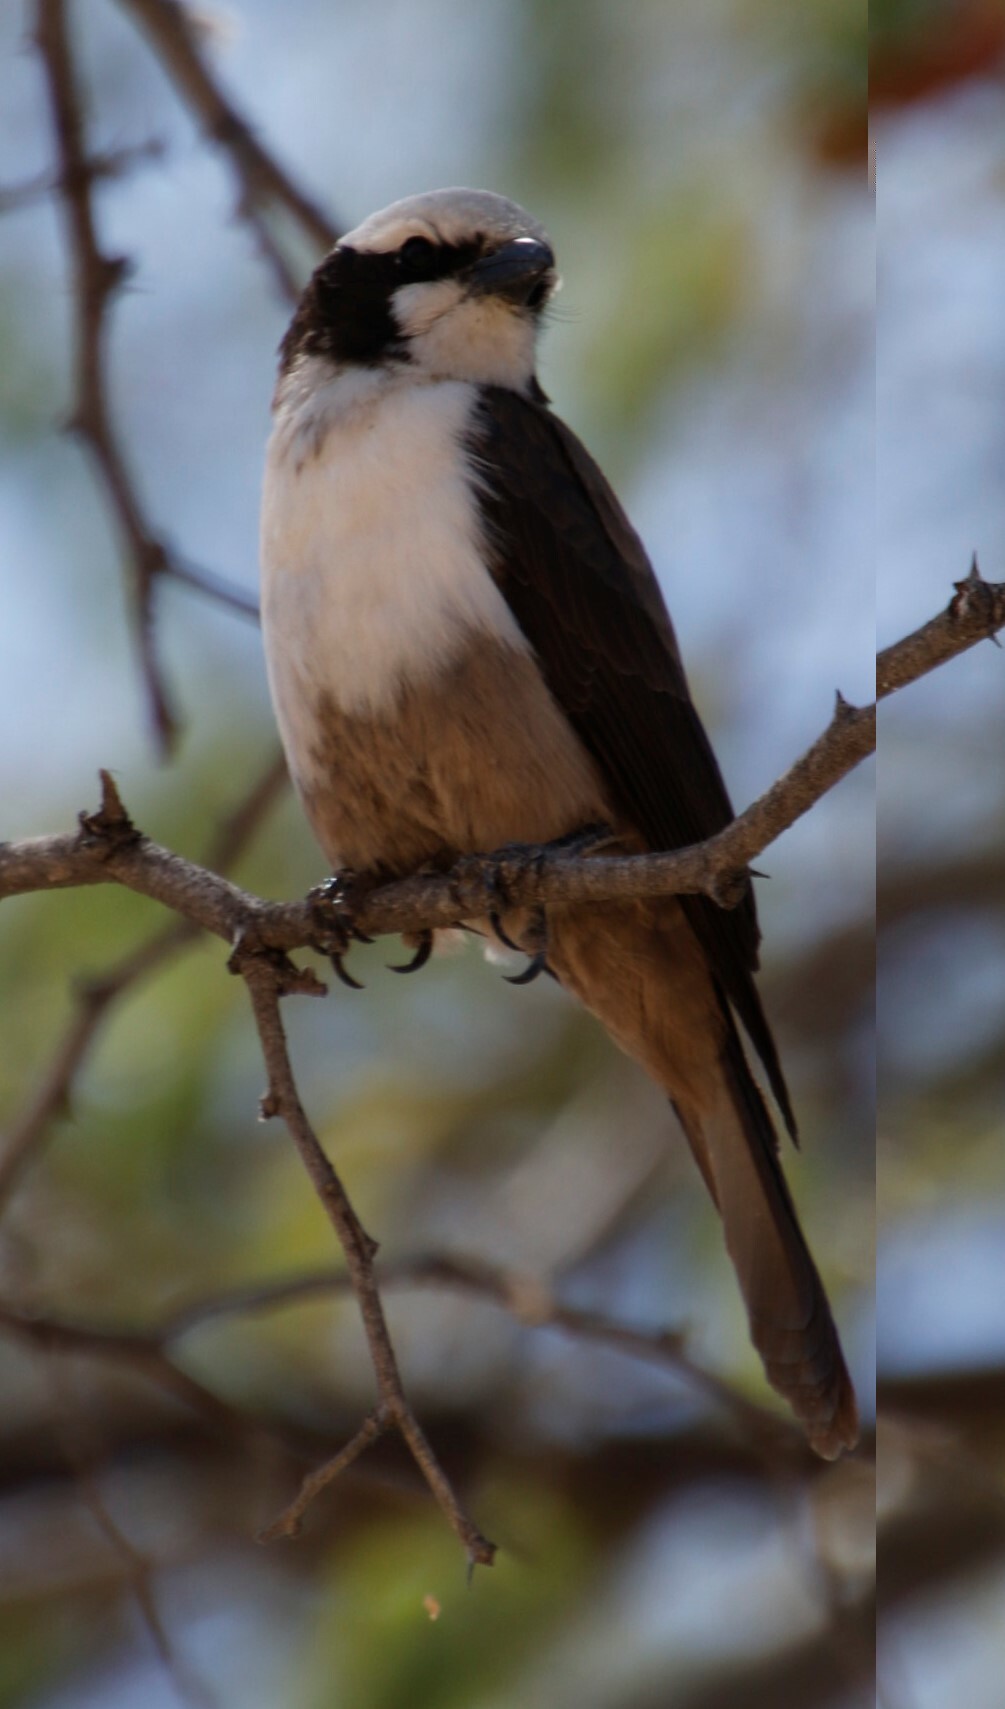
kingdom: Animalia
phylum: Chordata
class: Aves
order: Passeriformes
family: Laniidae
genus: Eurocephalus
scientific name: Eurocephalus anguitimens
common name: Southern white-crowned shrike
